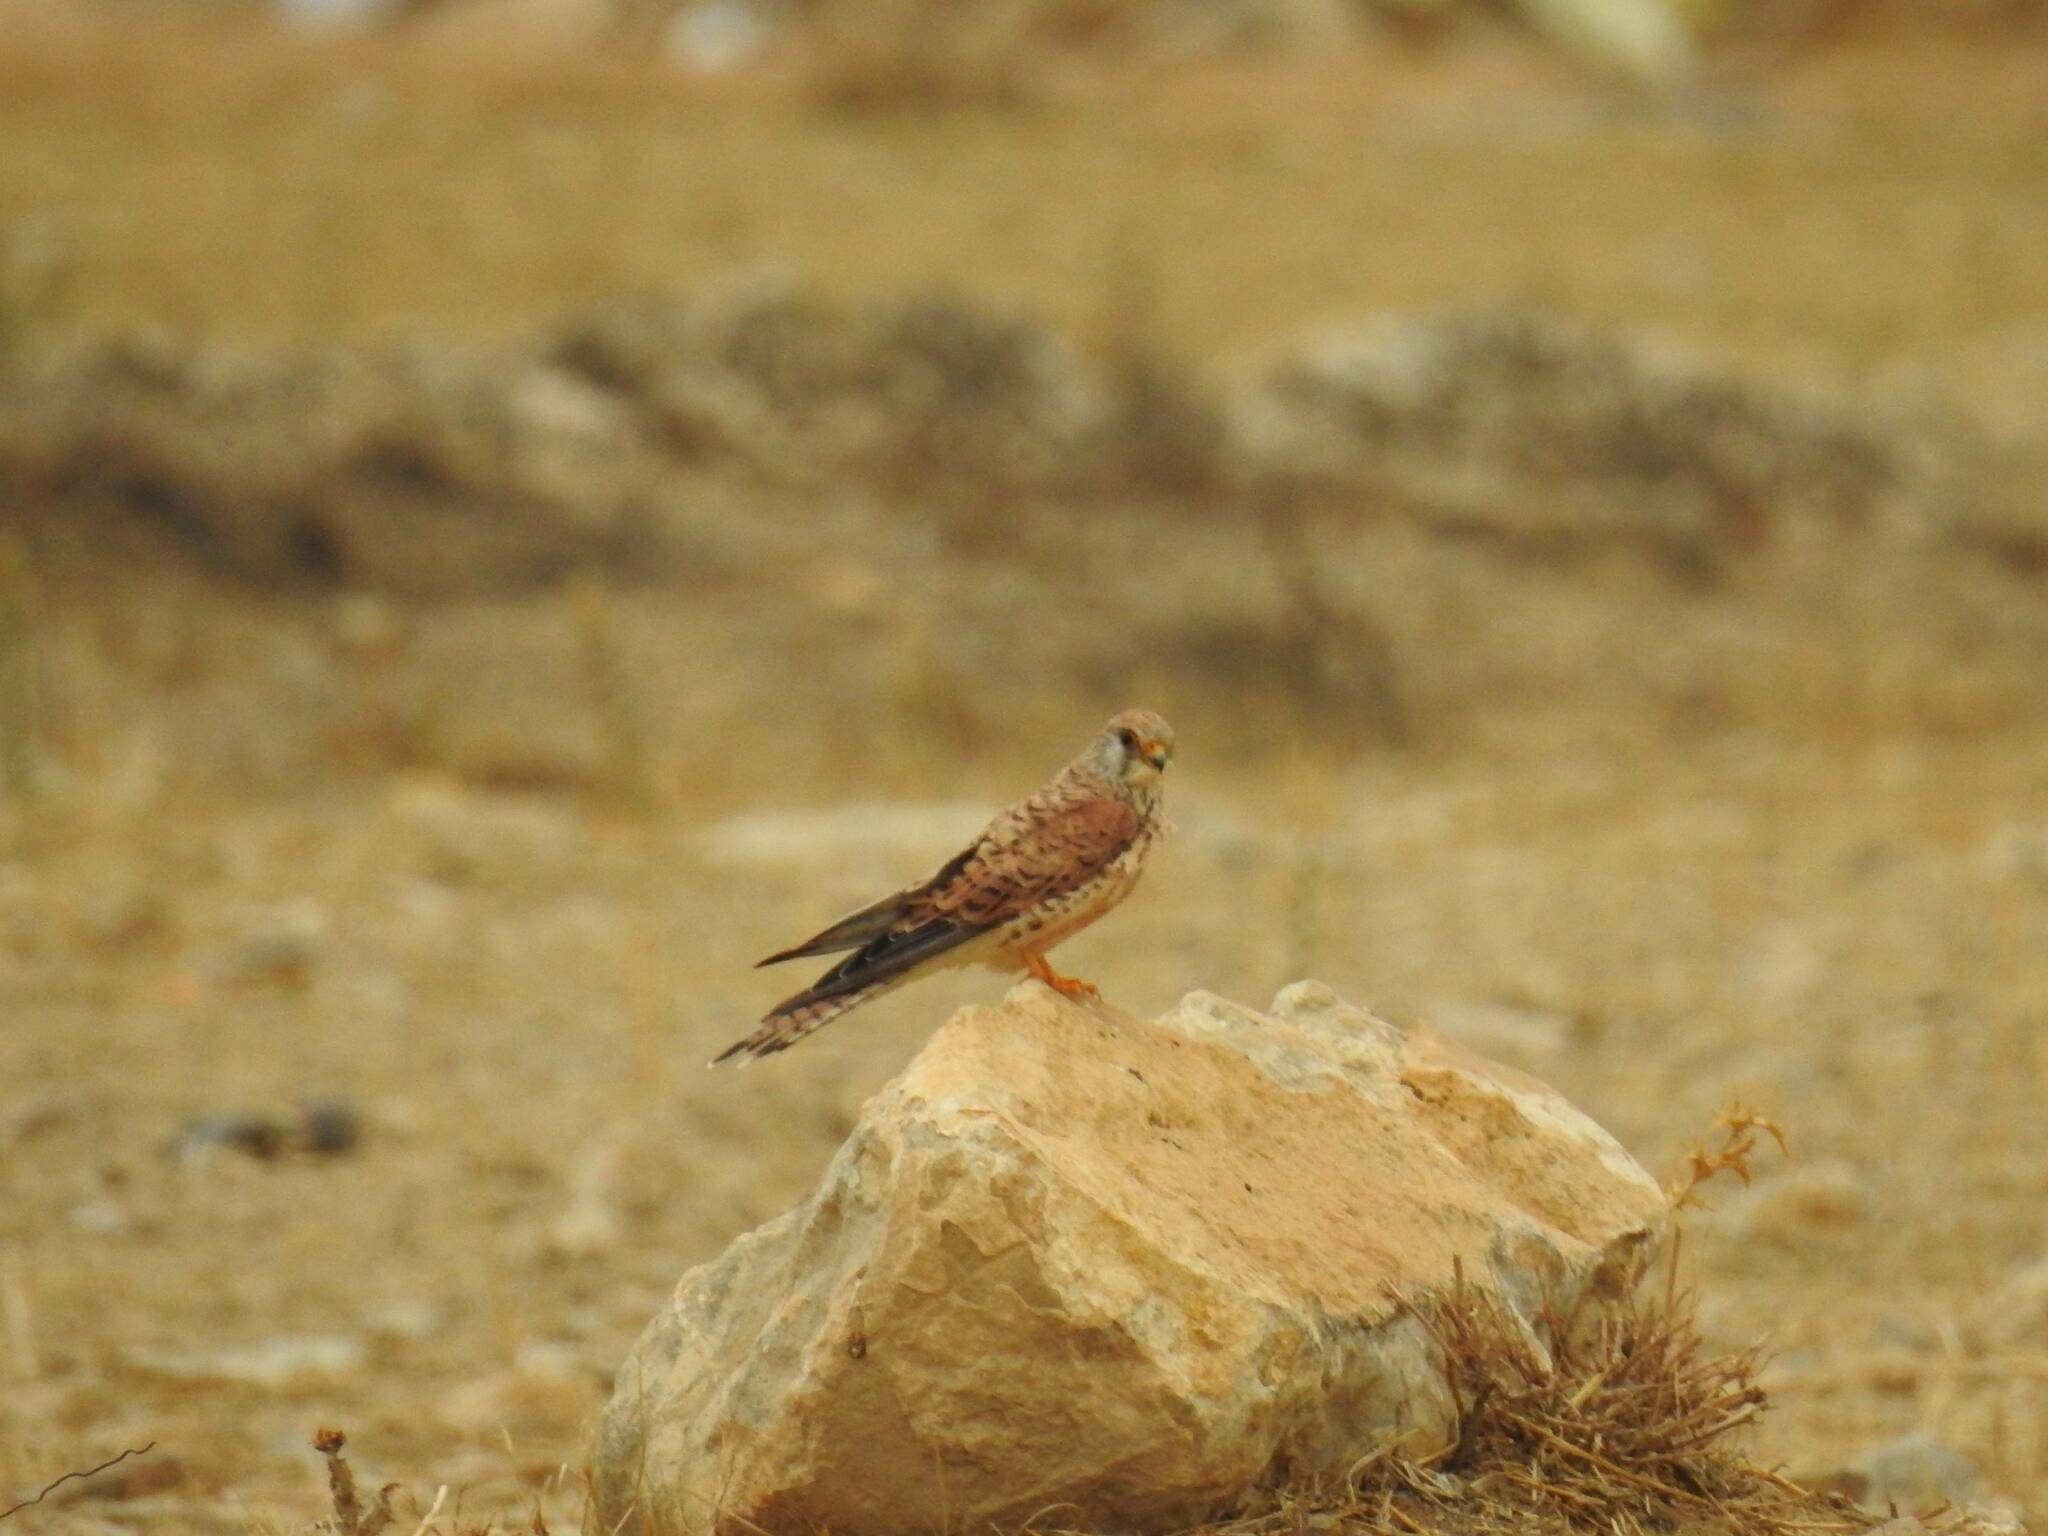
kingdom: Animalia
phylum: Chordata
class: Aves
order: Falconiformes
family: Falconidae
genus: Falco
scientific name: Falco tinnunculus
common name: Common kestrel
